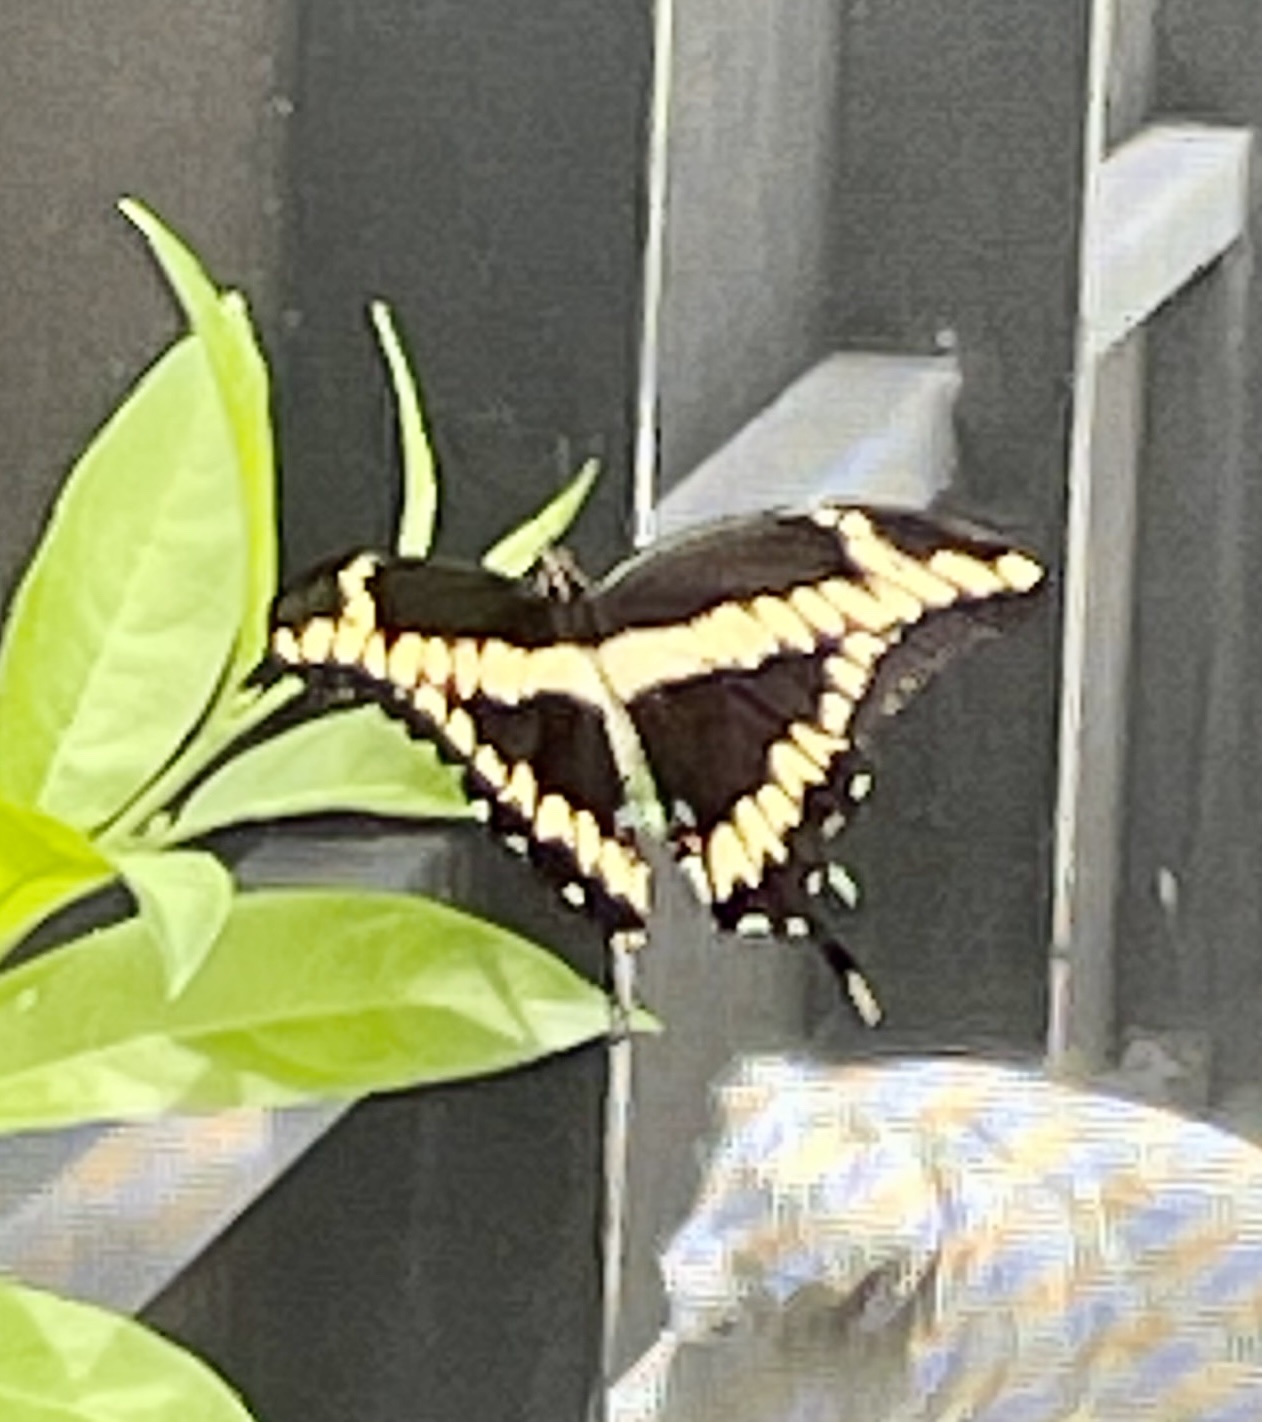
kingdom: Animalia
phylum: Arthropoda
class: Insecta
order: Lepidoptera
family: Papilionidae
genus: Papilio
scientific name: Papilio cresphontes
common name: Giant swallowtail
